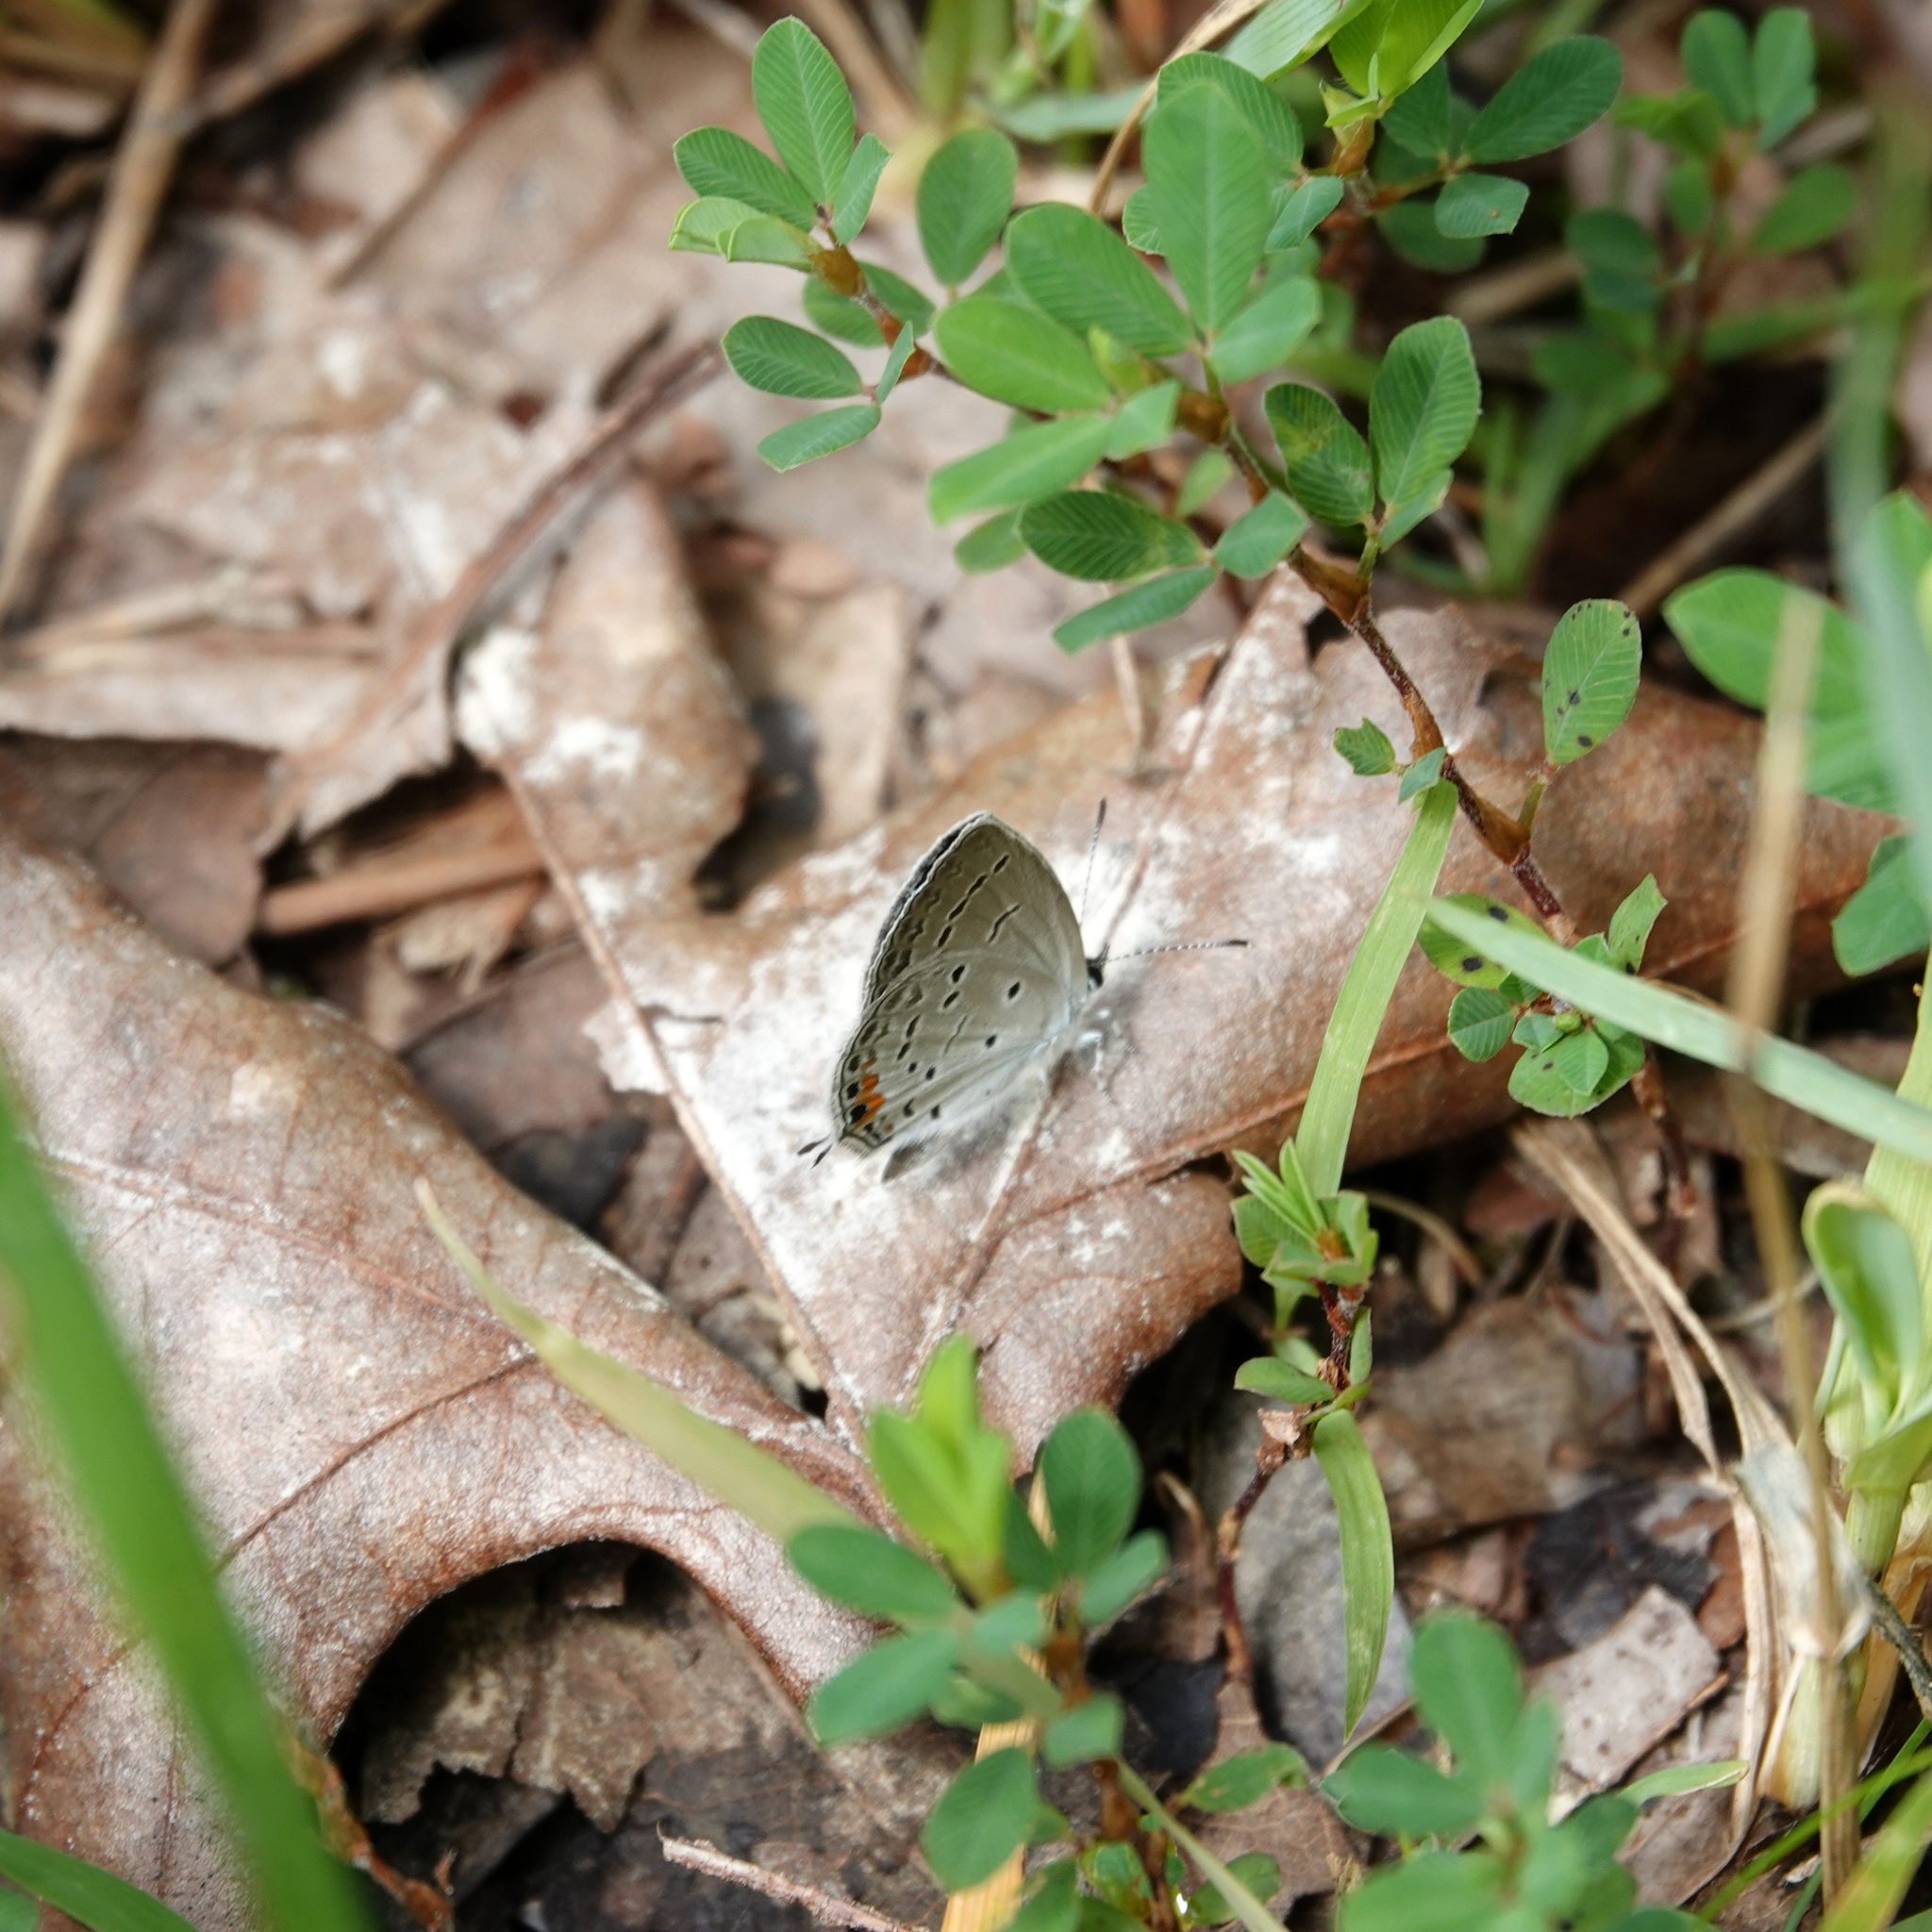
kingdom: Animalia
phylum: Arthropoda
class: Insecta
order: Lepidoptera
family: Lycaenidae
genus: Elkalyce
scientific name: Elkalyce comyntas
